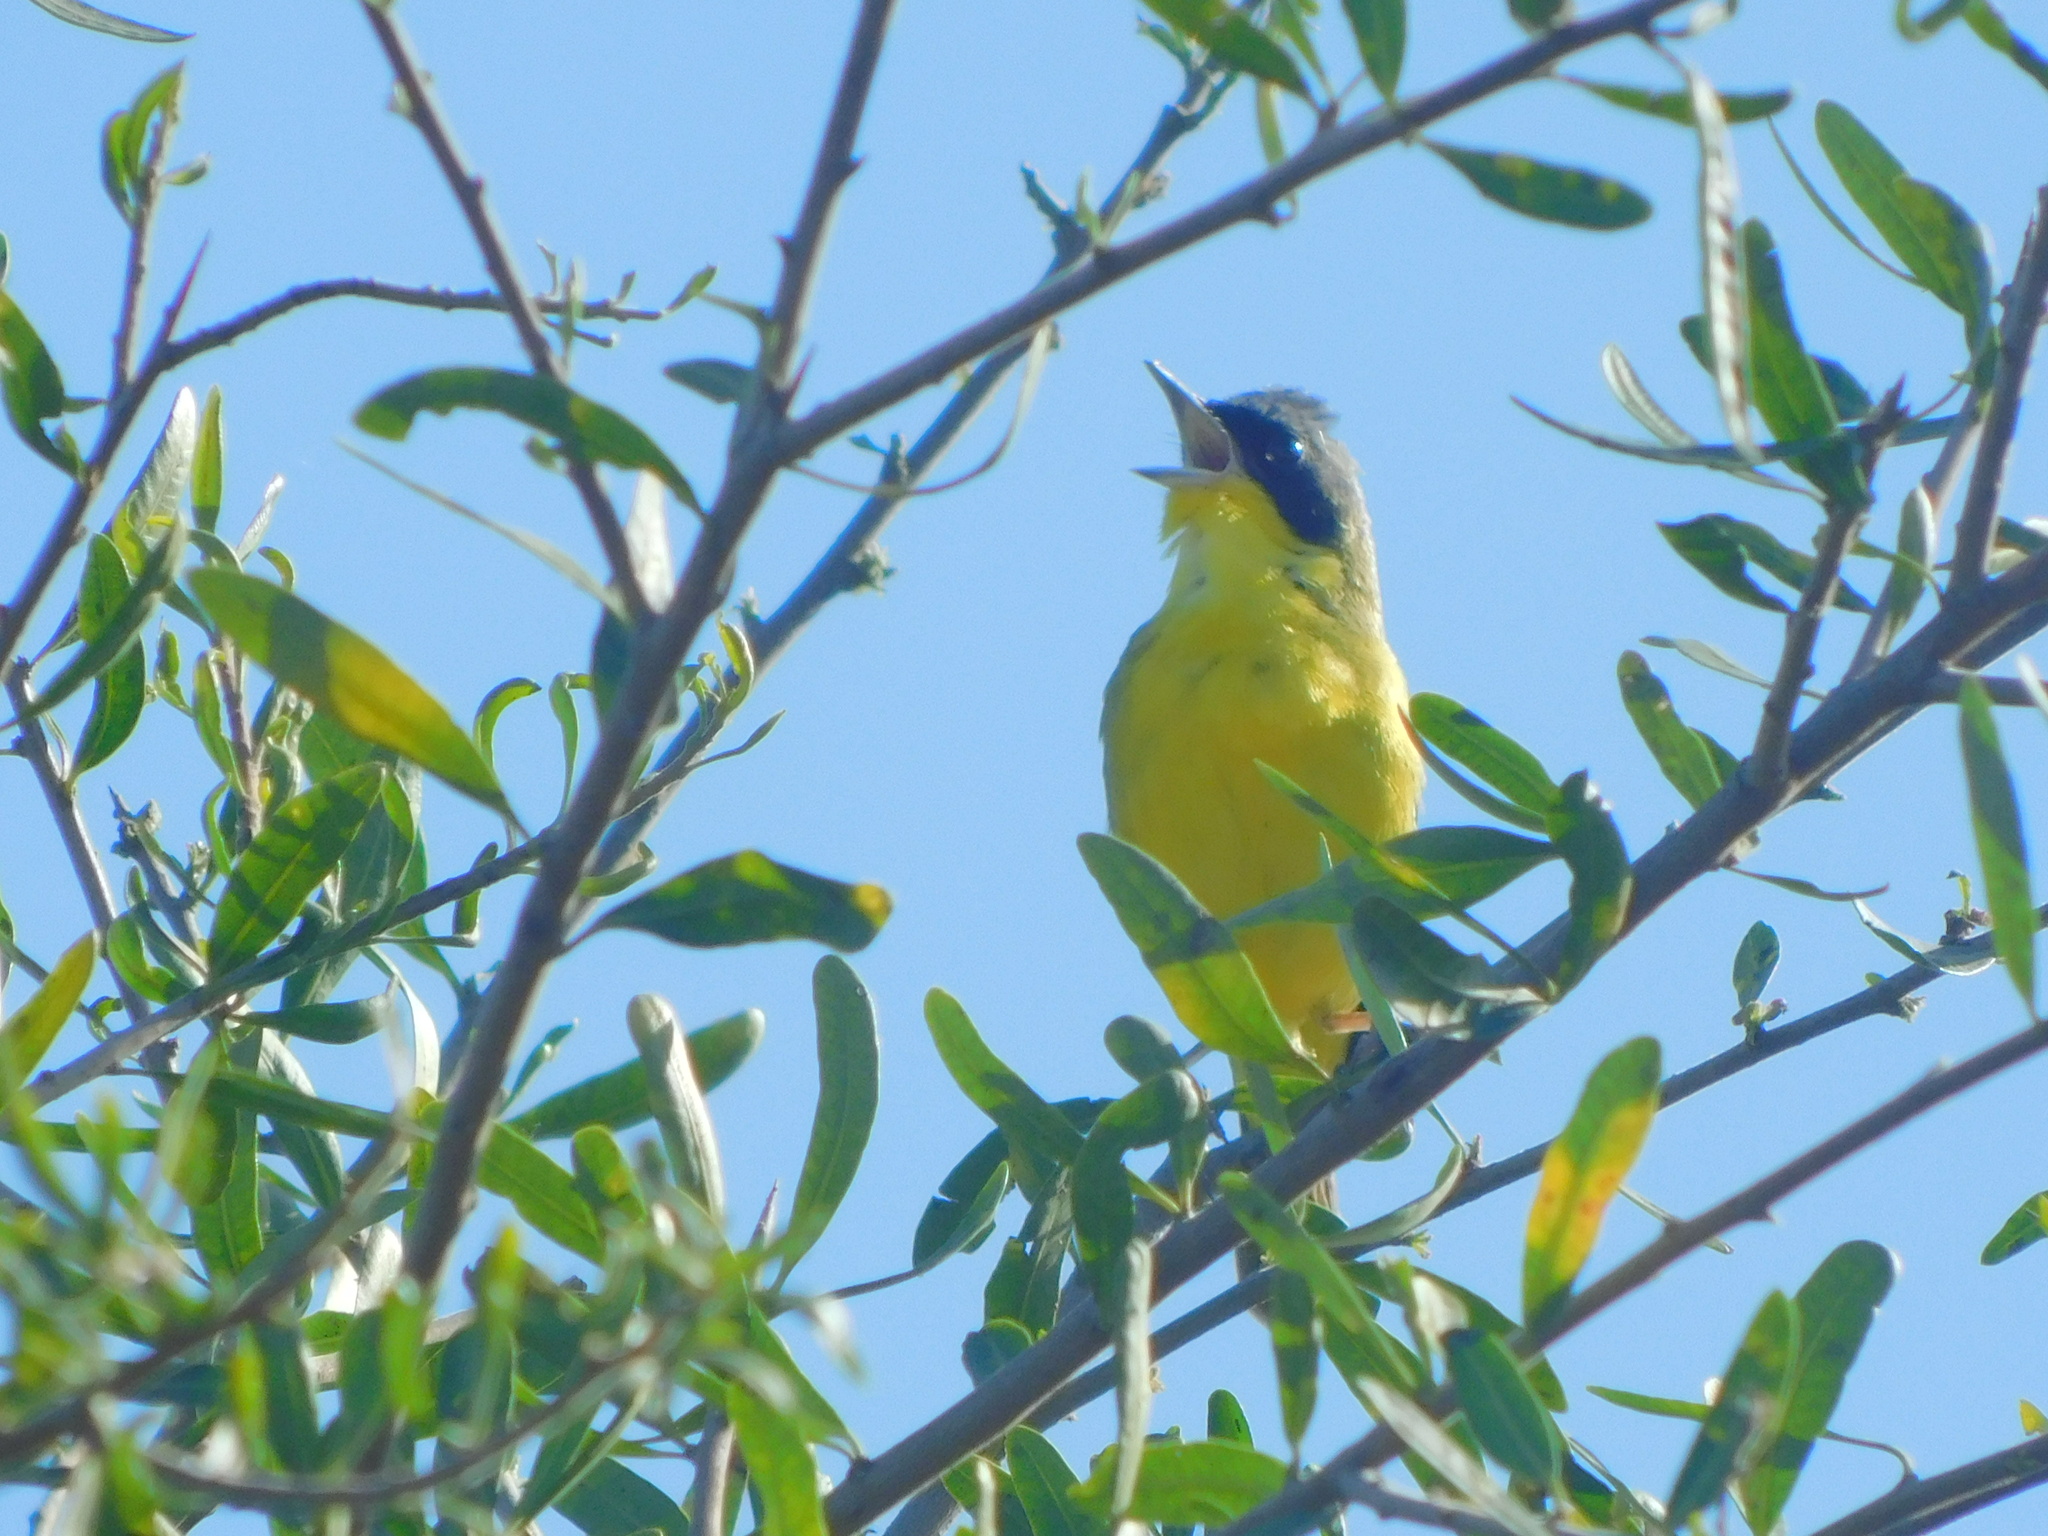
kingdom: Animalia
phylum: Chordata
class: Aves
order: Passeriformes
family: Parulidae
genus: Geothlypis
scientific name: Geothlypis velata
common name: Southern yellowthroat
